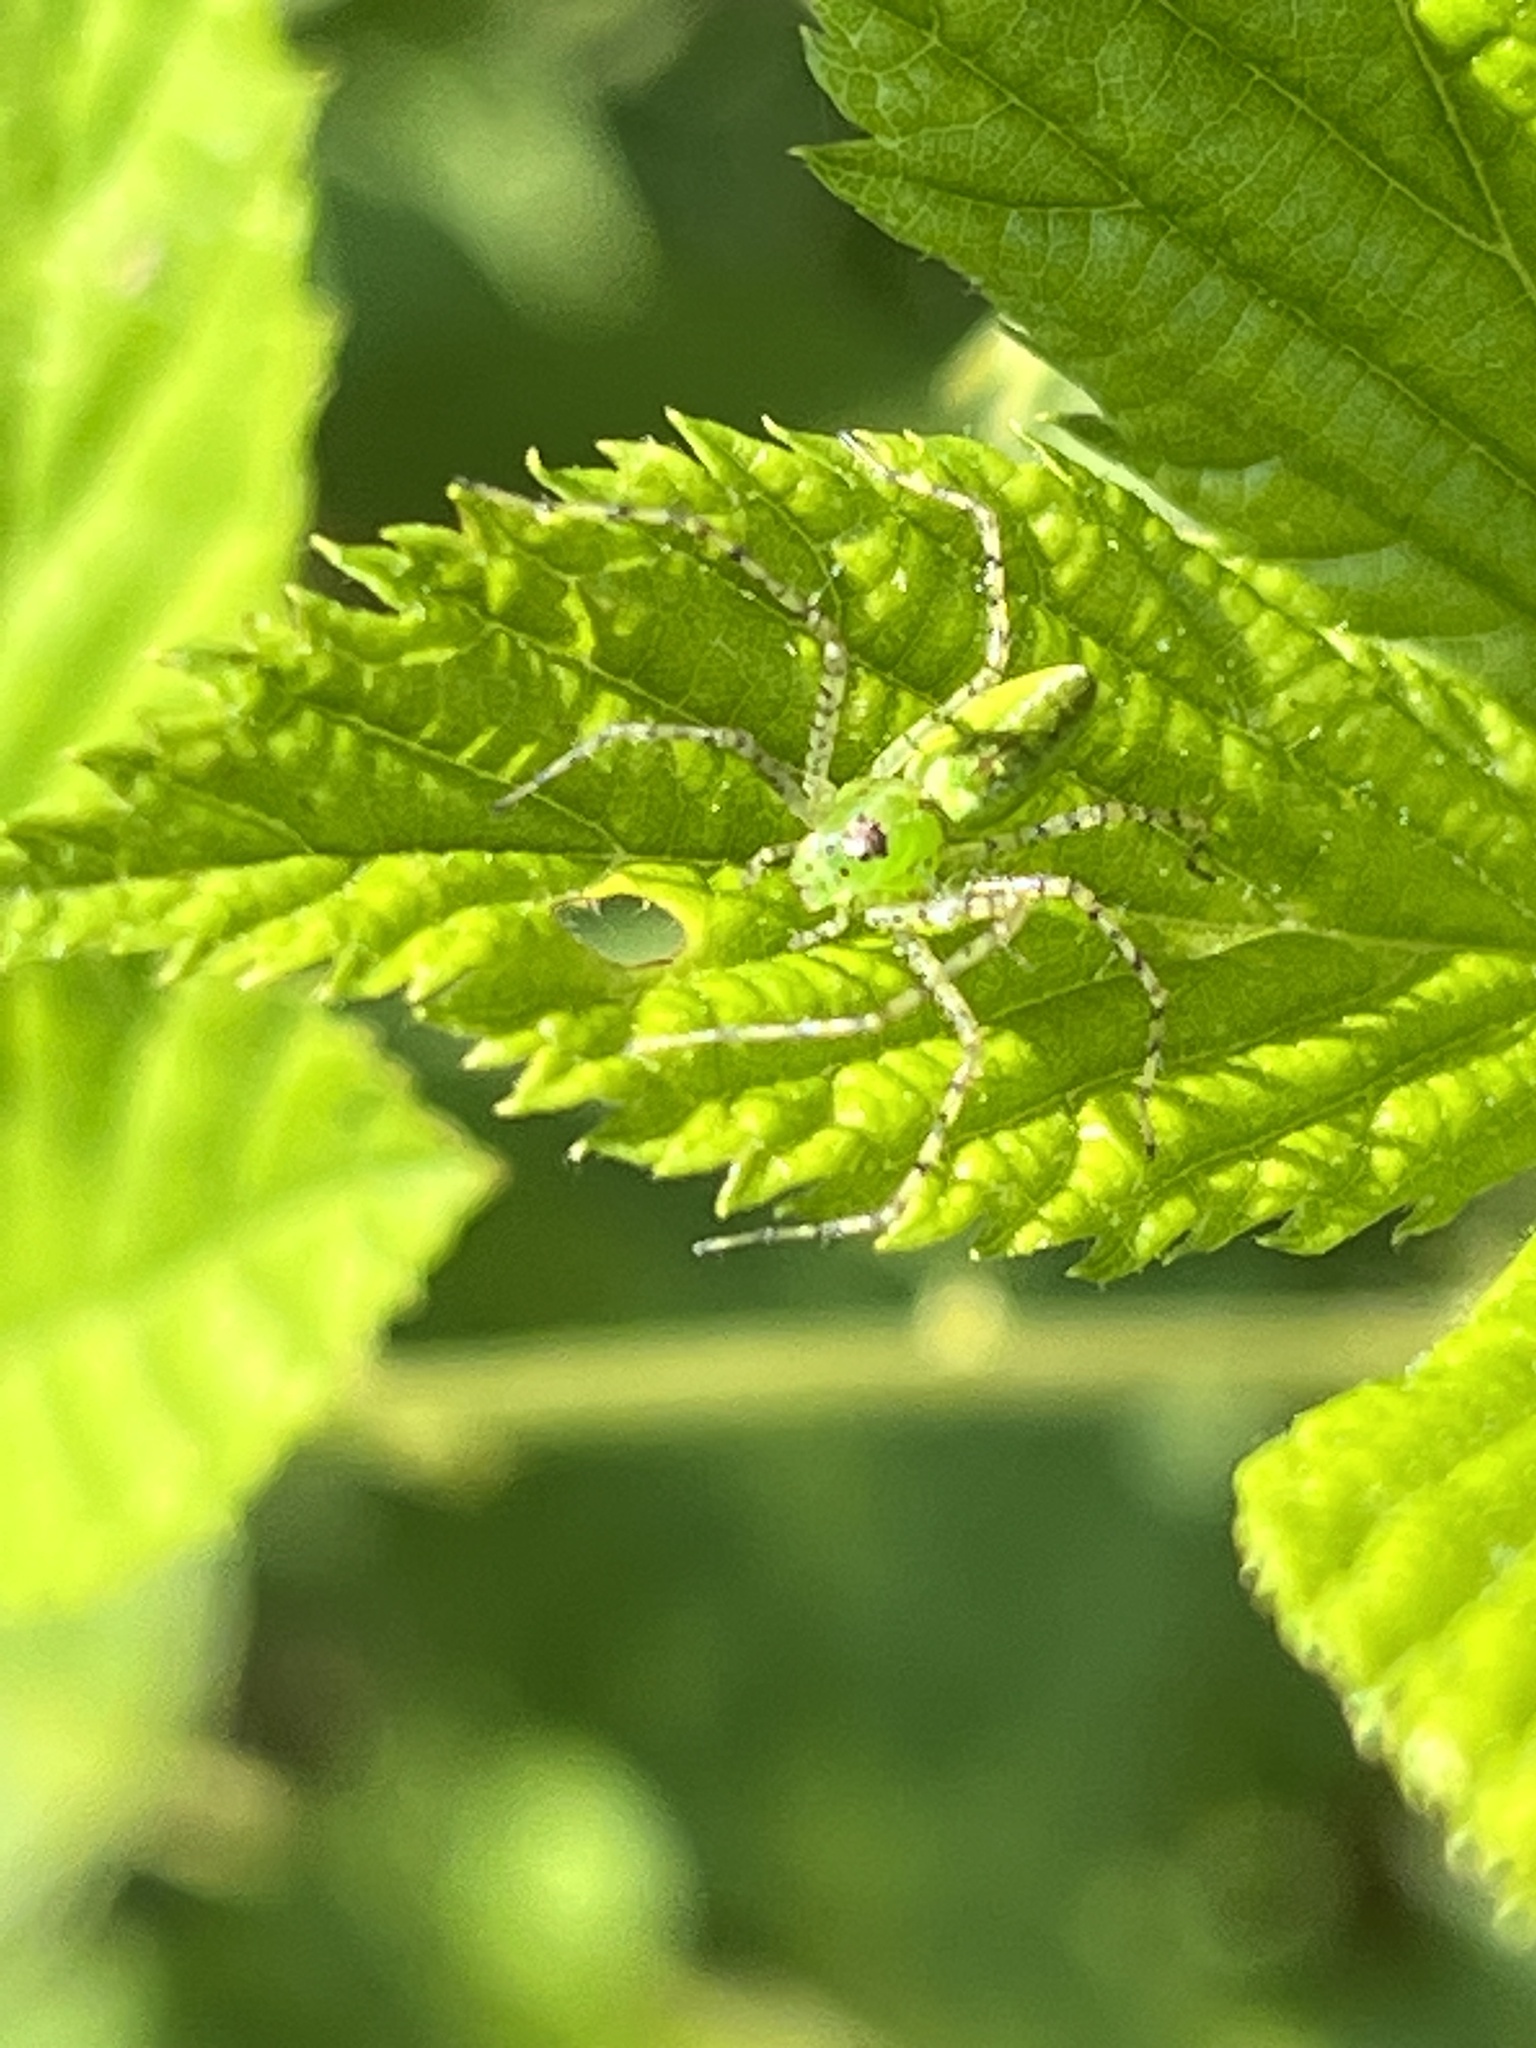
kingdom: Animalia
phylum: Arthropoda
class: Arachnida
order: Araneae
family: Oxyopidae
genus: Peucetia
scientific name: Peucetia viridans
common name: Lynx spiders
